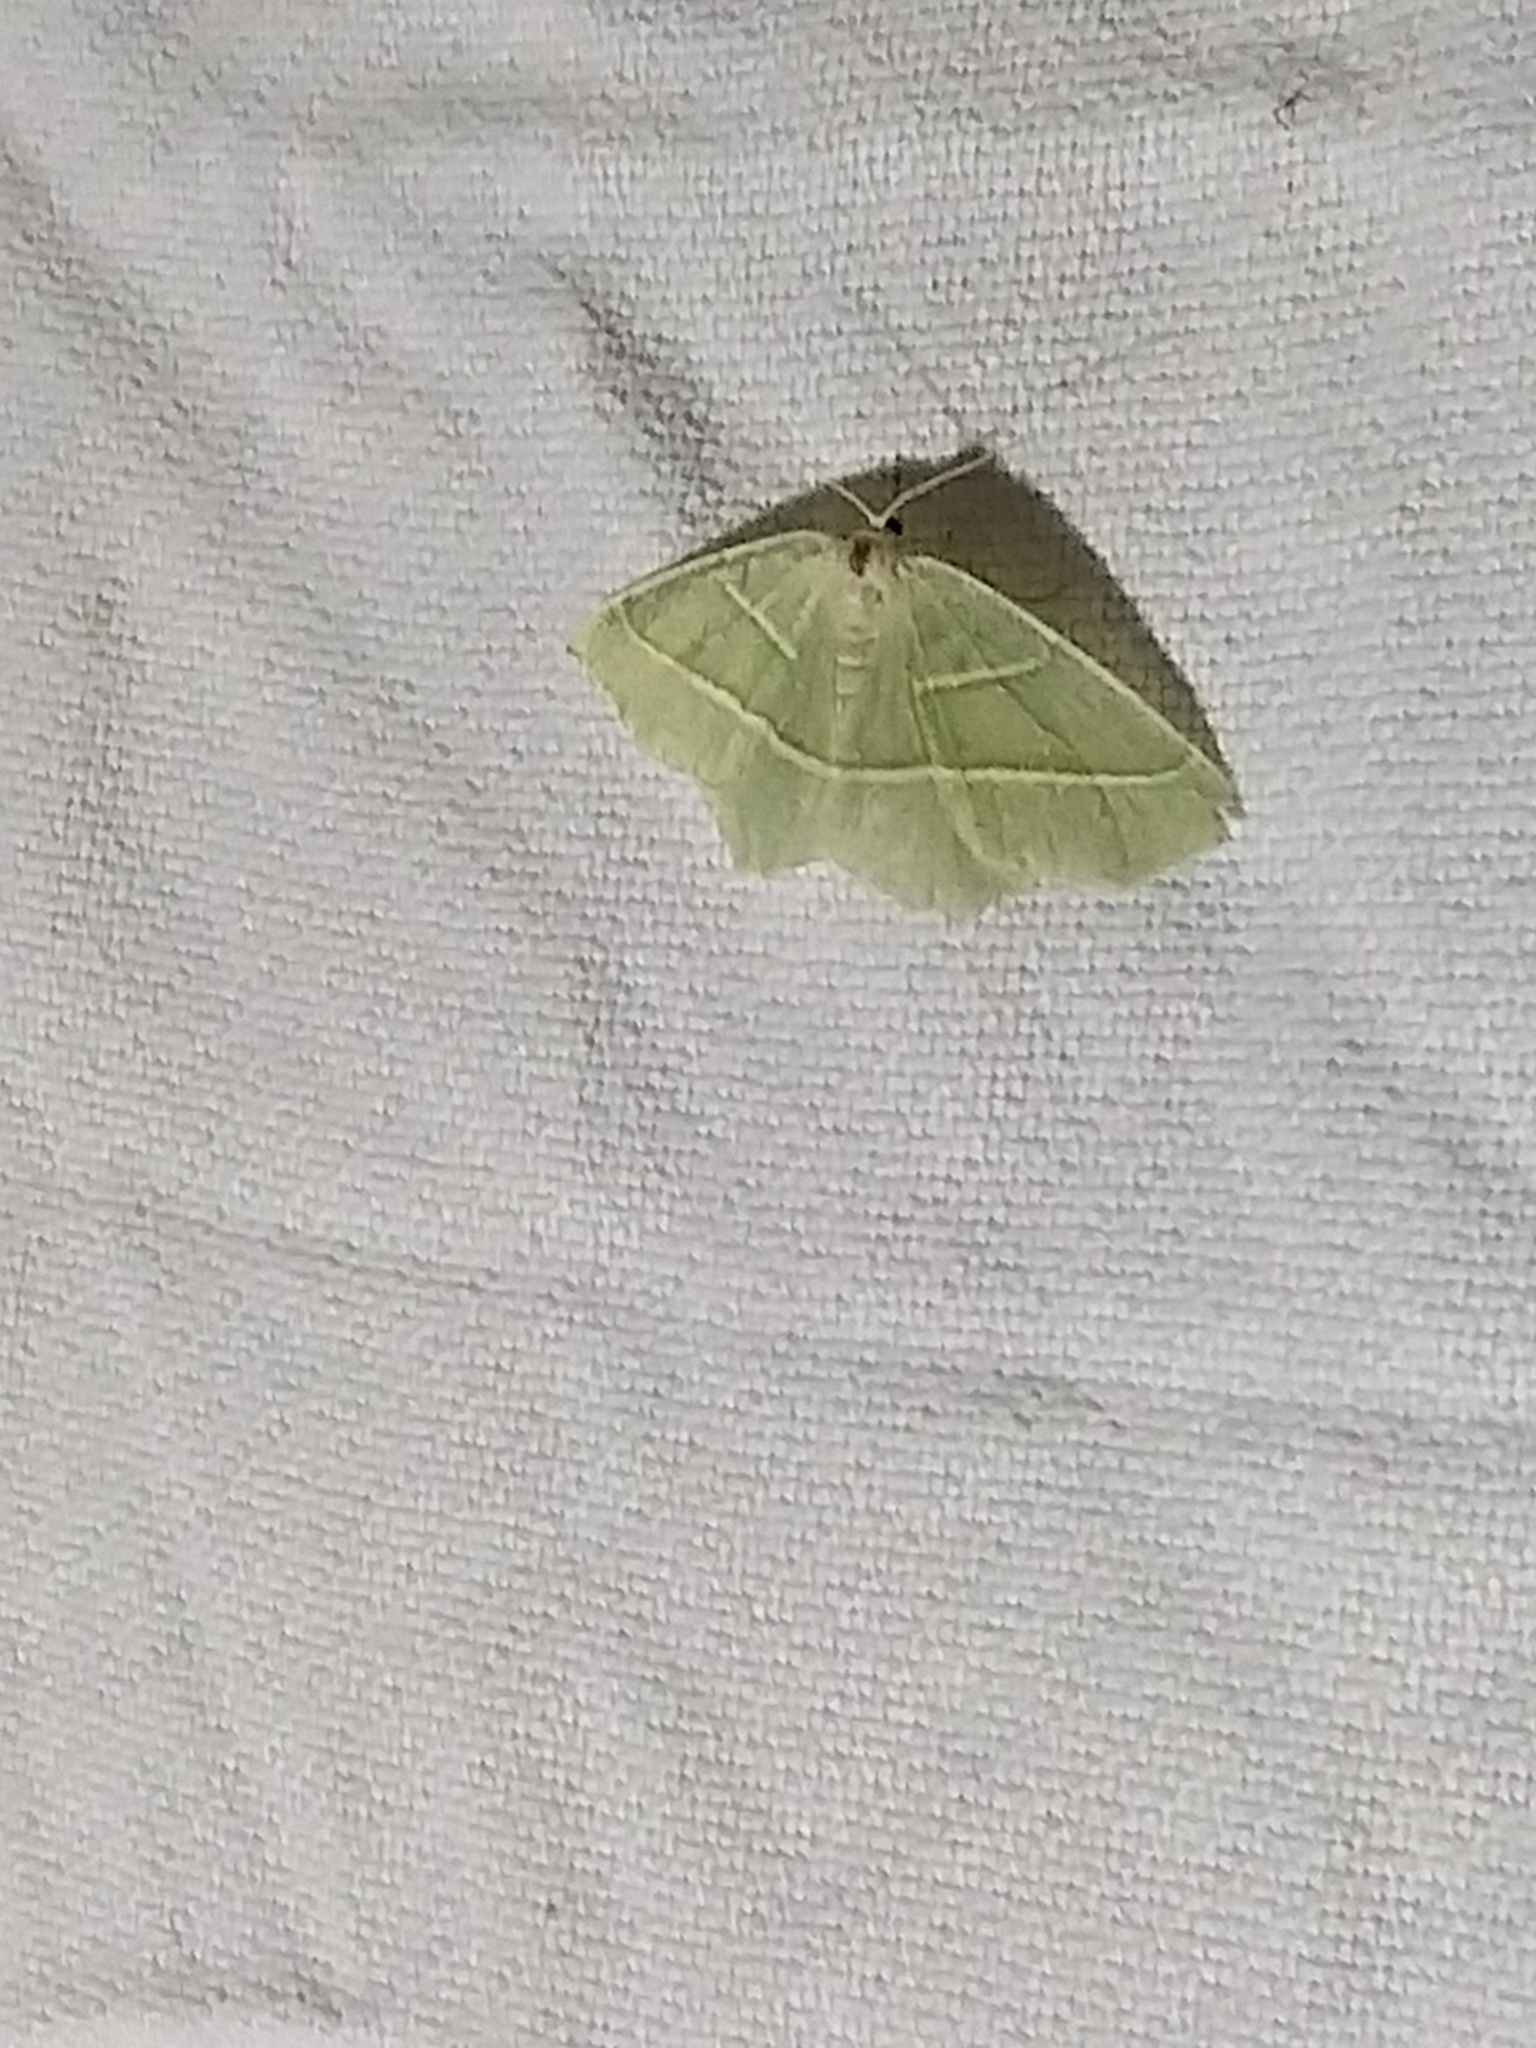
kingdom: Animalia
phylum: Arthropoda
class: Insecta
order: Lepidoptera
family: Geometridae
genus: Campaea
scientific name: Campaea margaritaria
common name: Light emerald
